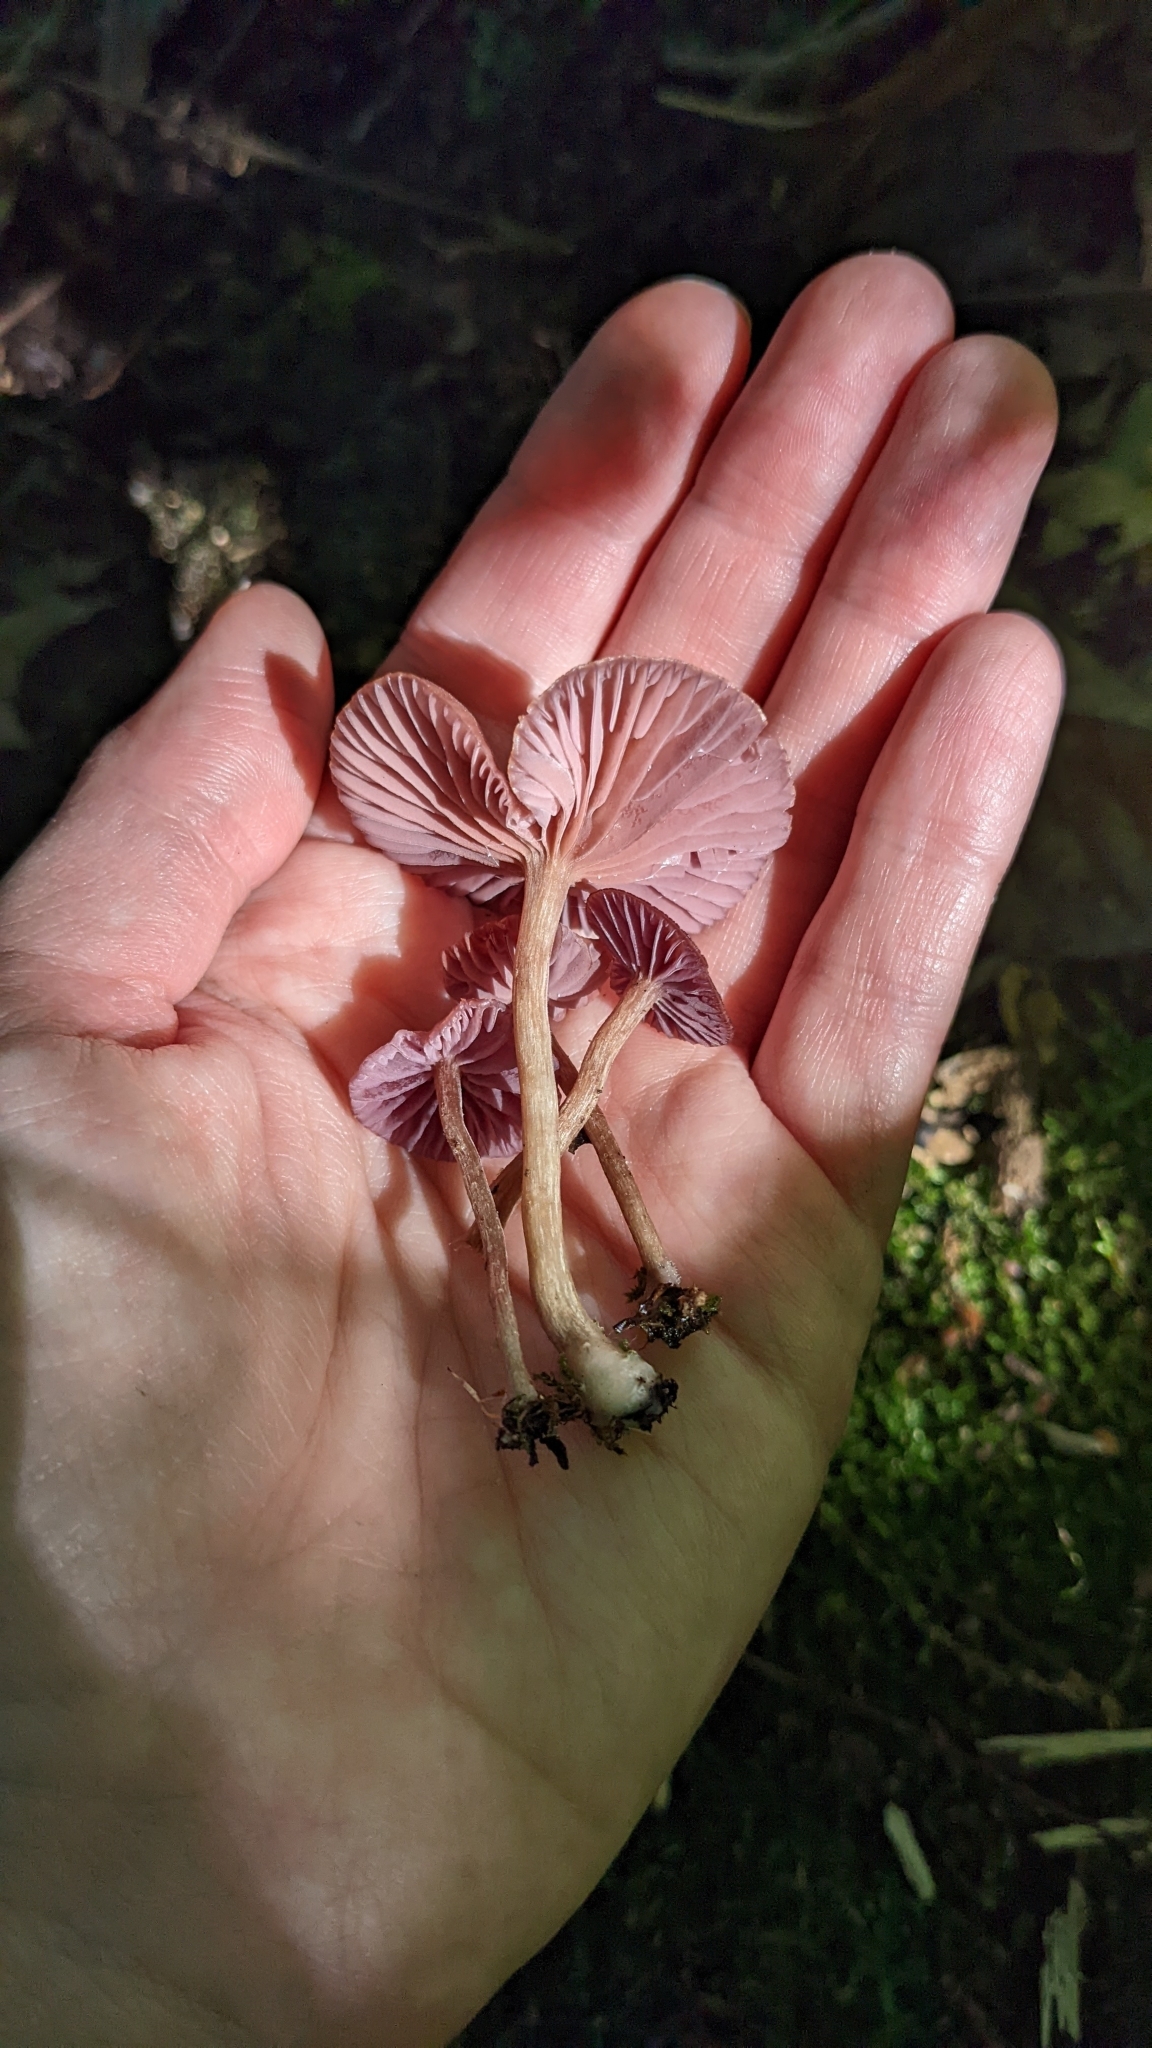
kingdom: Fungi
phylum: Basidiomycota
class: Agaricomycetes
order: Agaricales
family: Hydnangiaceae
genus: Laccaria
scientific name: Laccaria amethystina
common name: Amethyst deceiver
